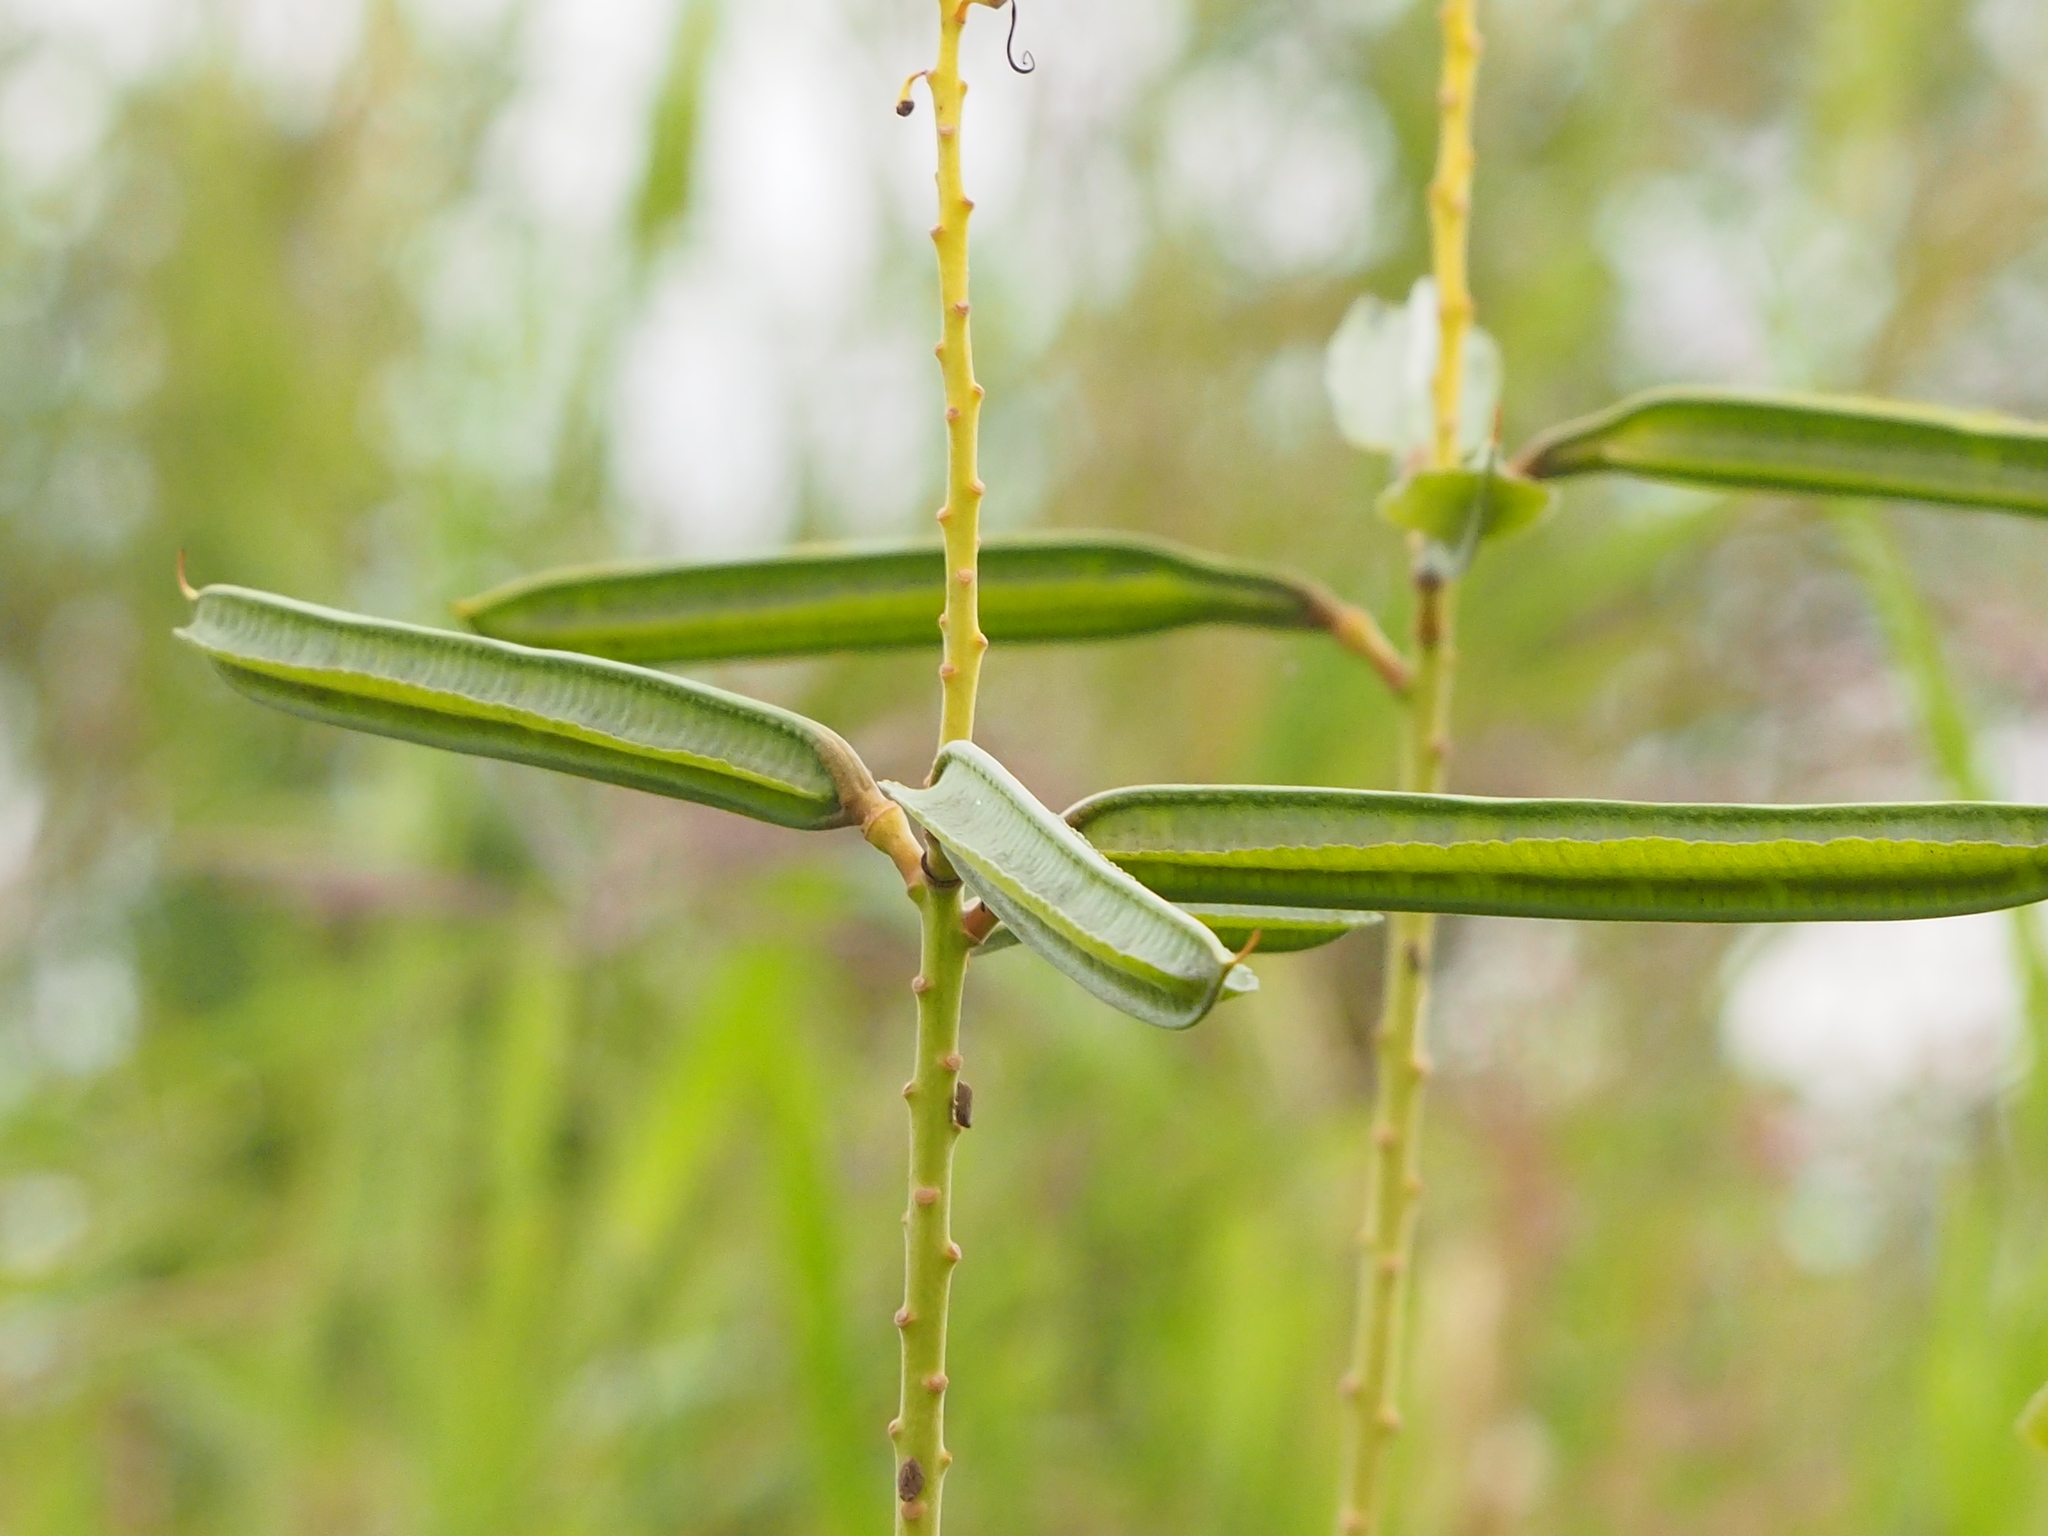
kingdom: Plantae
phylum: Tracheophyta
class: Magnoliopsida
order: Fabales
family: Fabaceae
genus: Senna
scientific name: Senna alata
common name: Emperor's candlesticks
